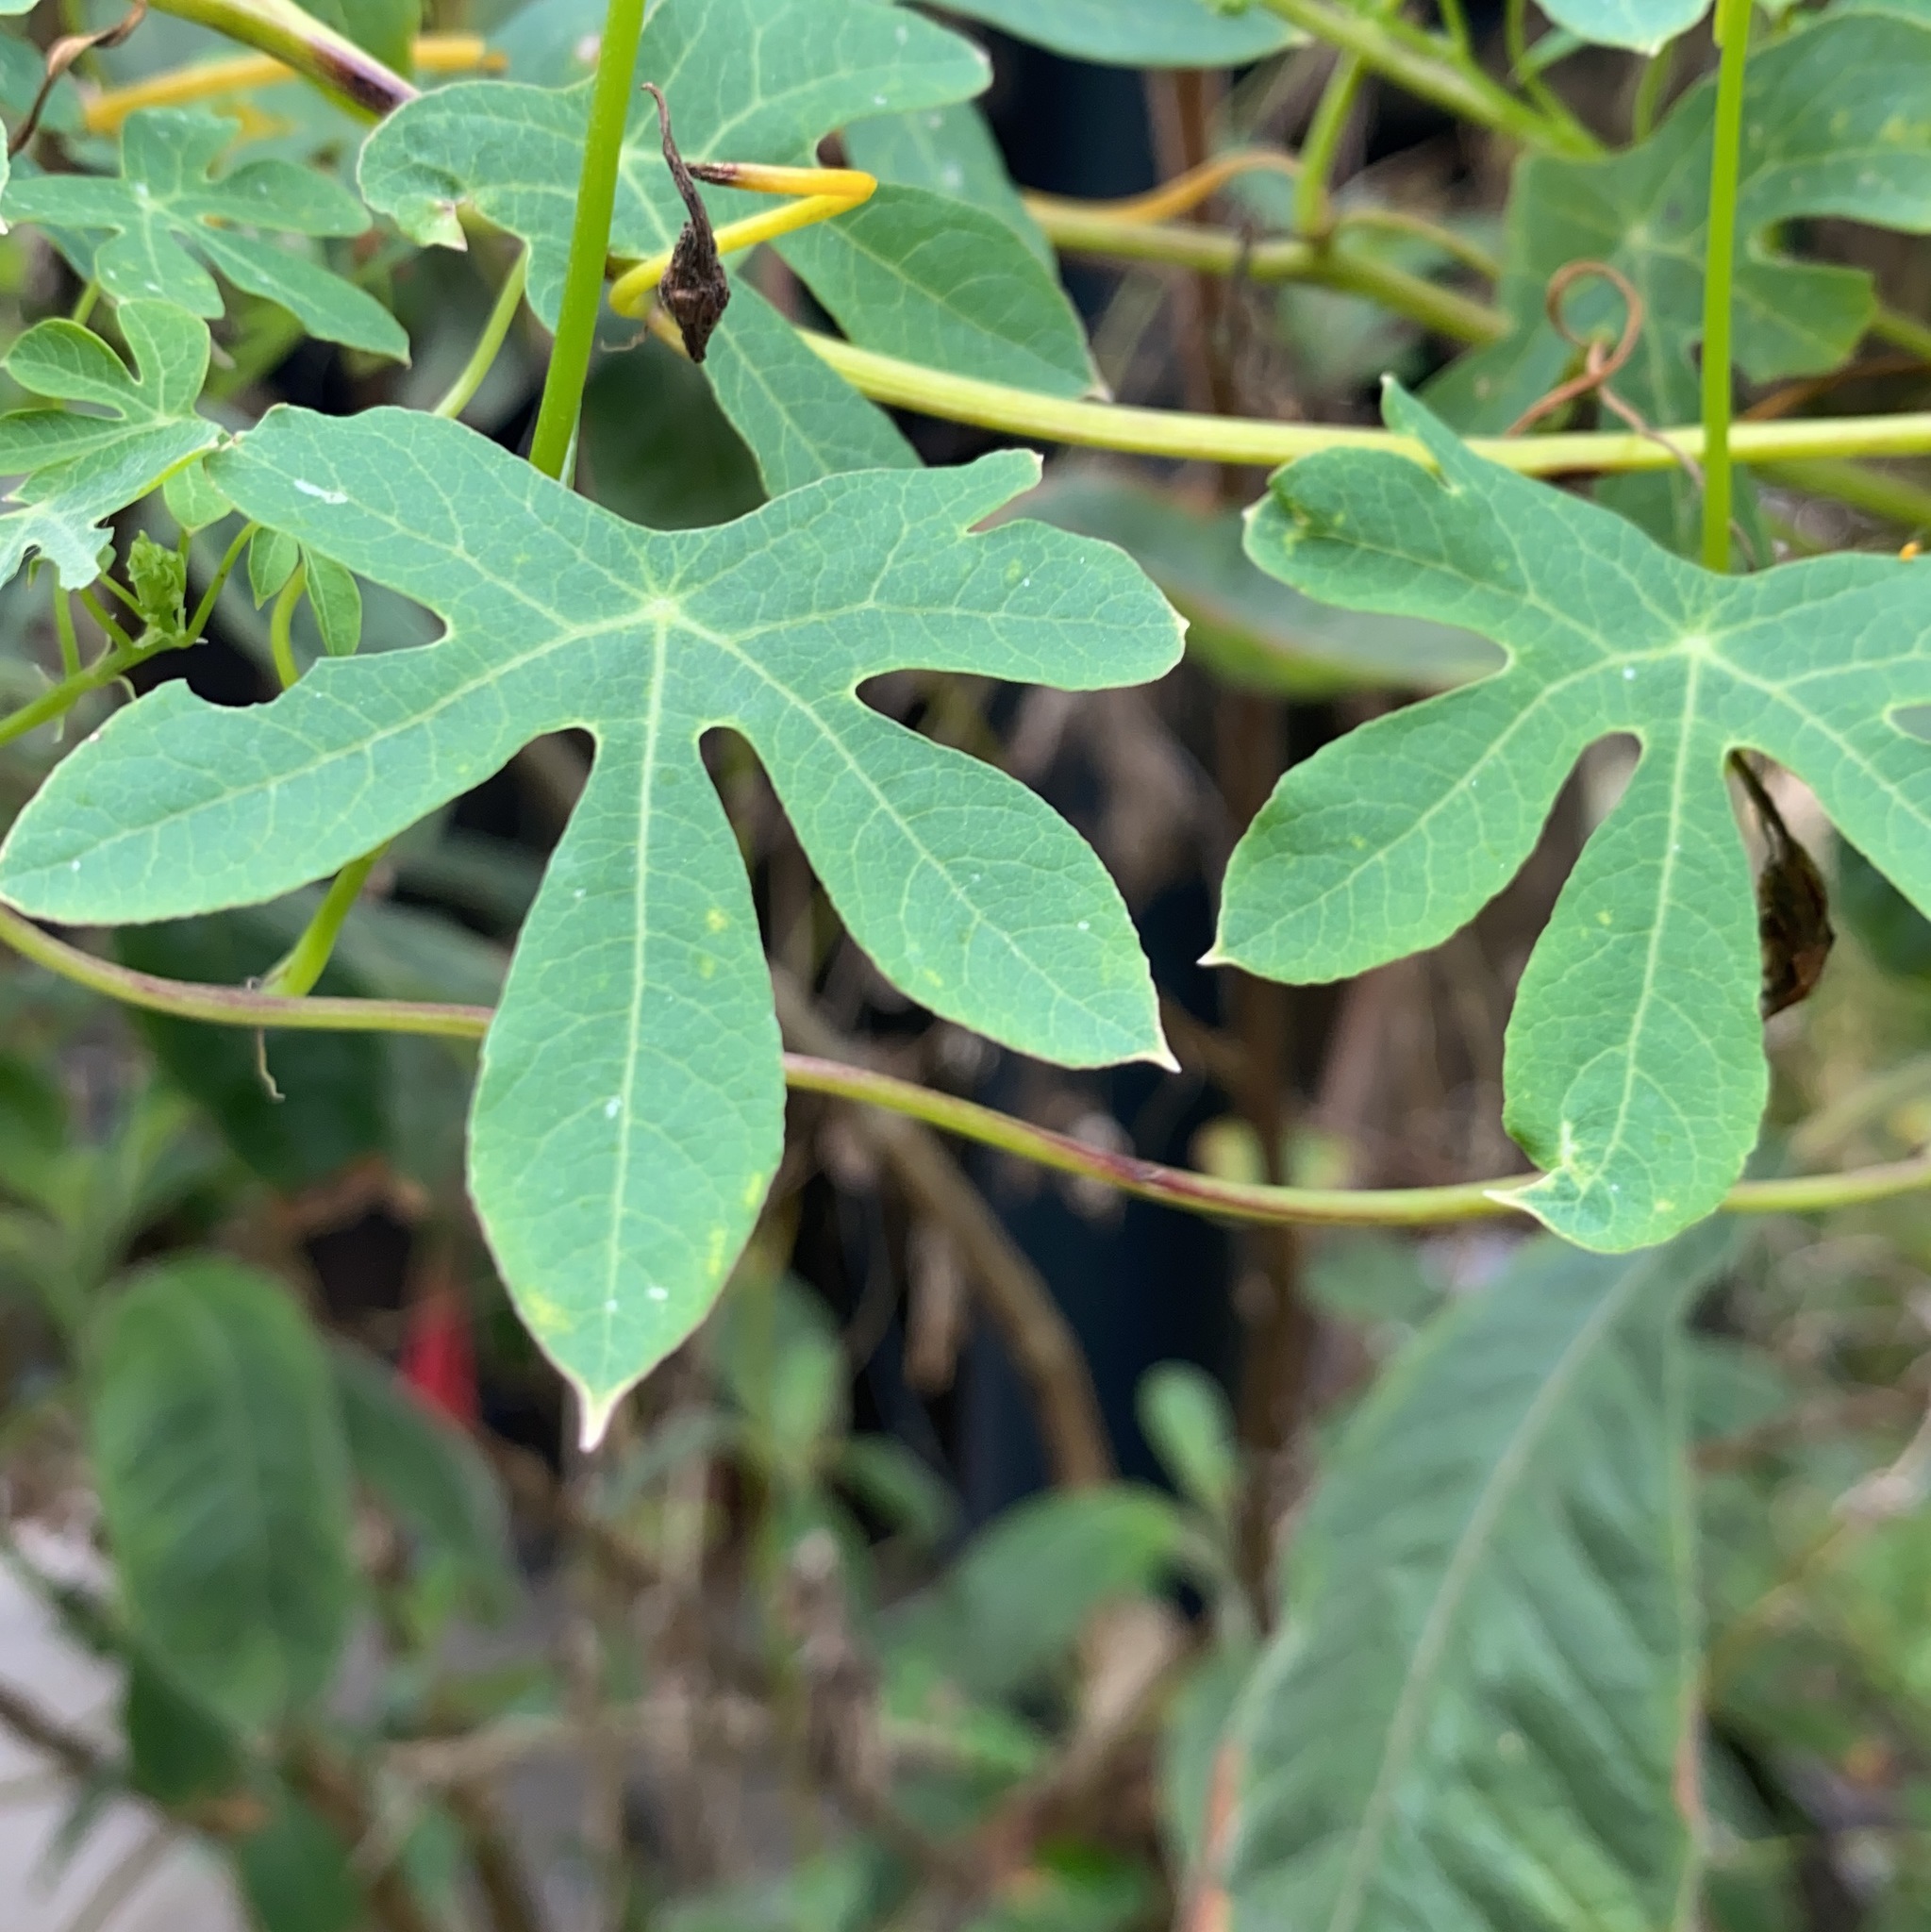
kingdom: Plantae
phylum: Tracheophyta
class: Magnoliopsida
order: Brassicales
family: Tropaeolaceae
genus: Tropaeolum
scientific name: Tropaeolum smithii
